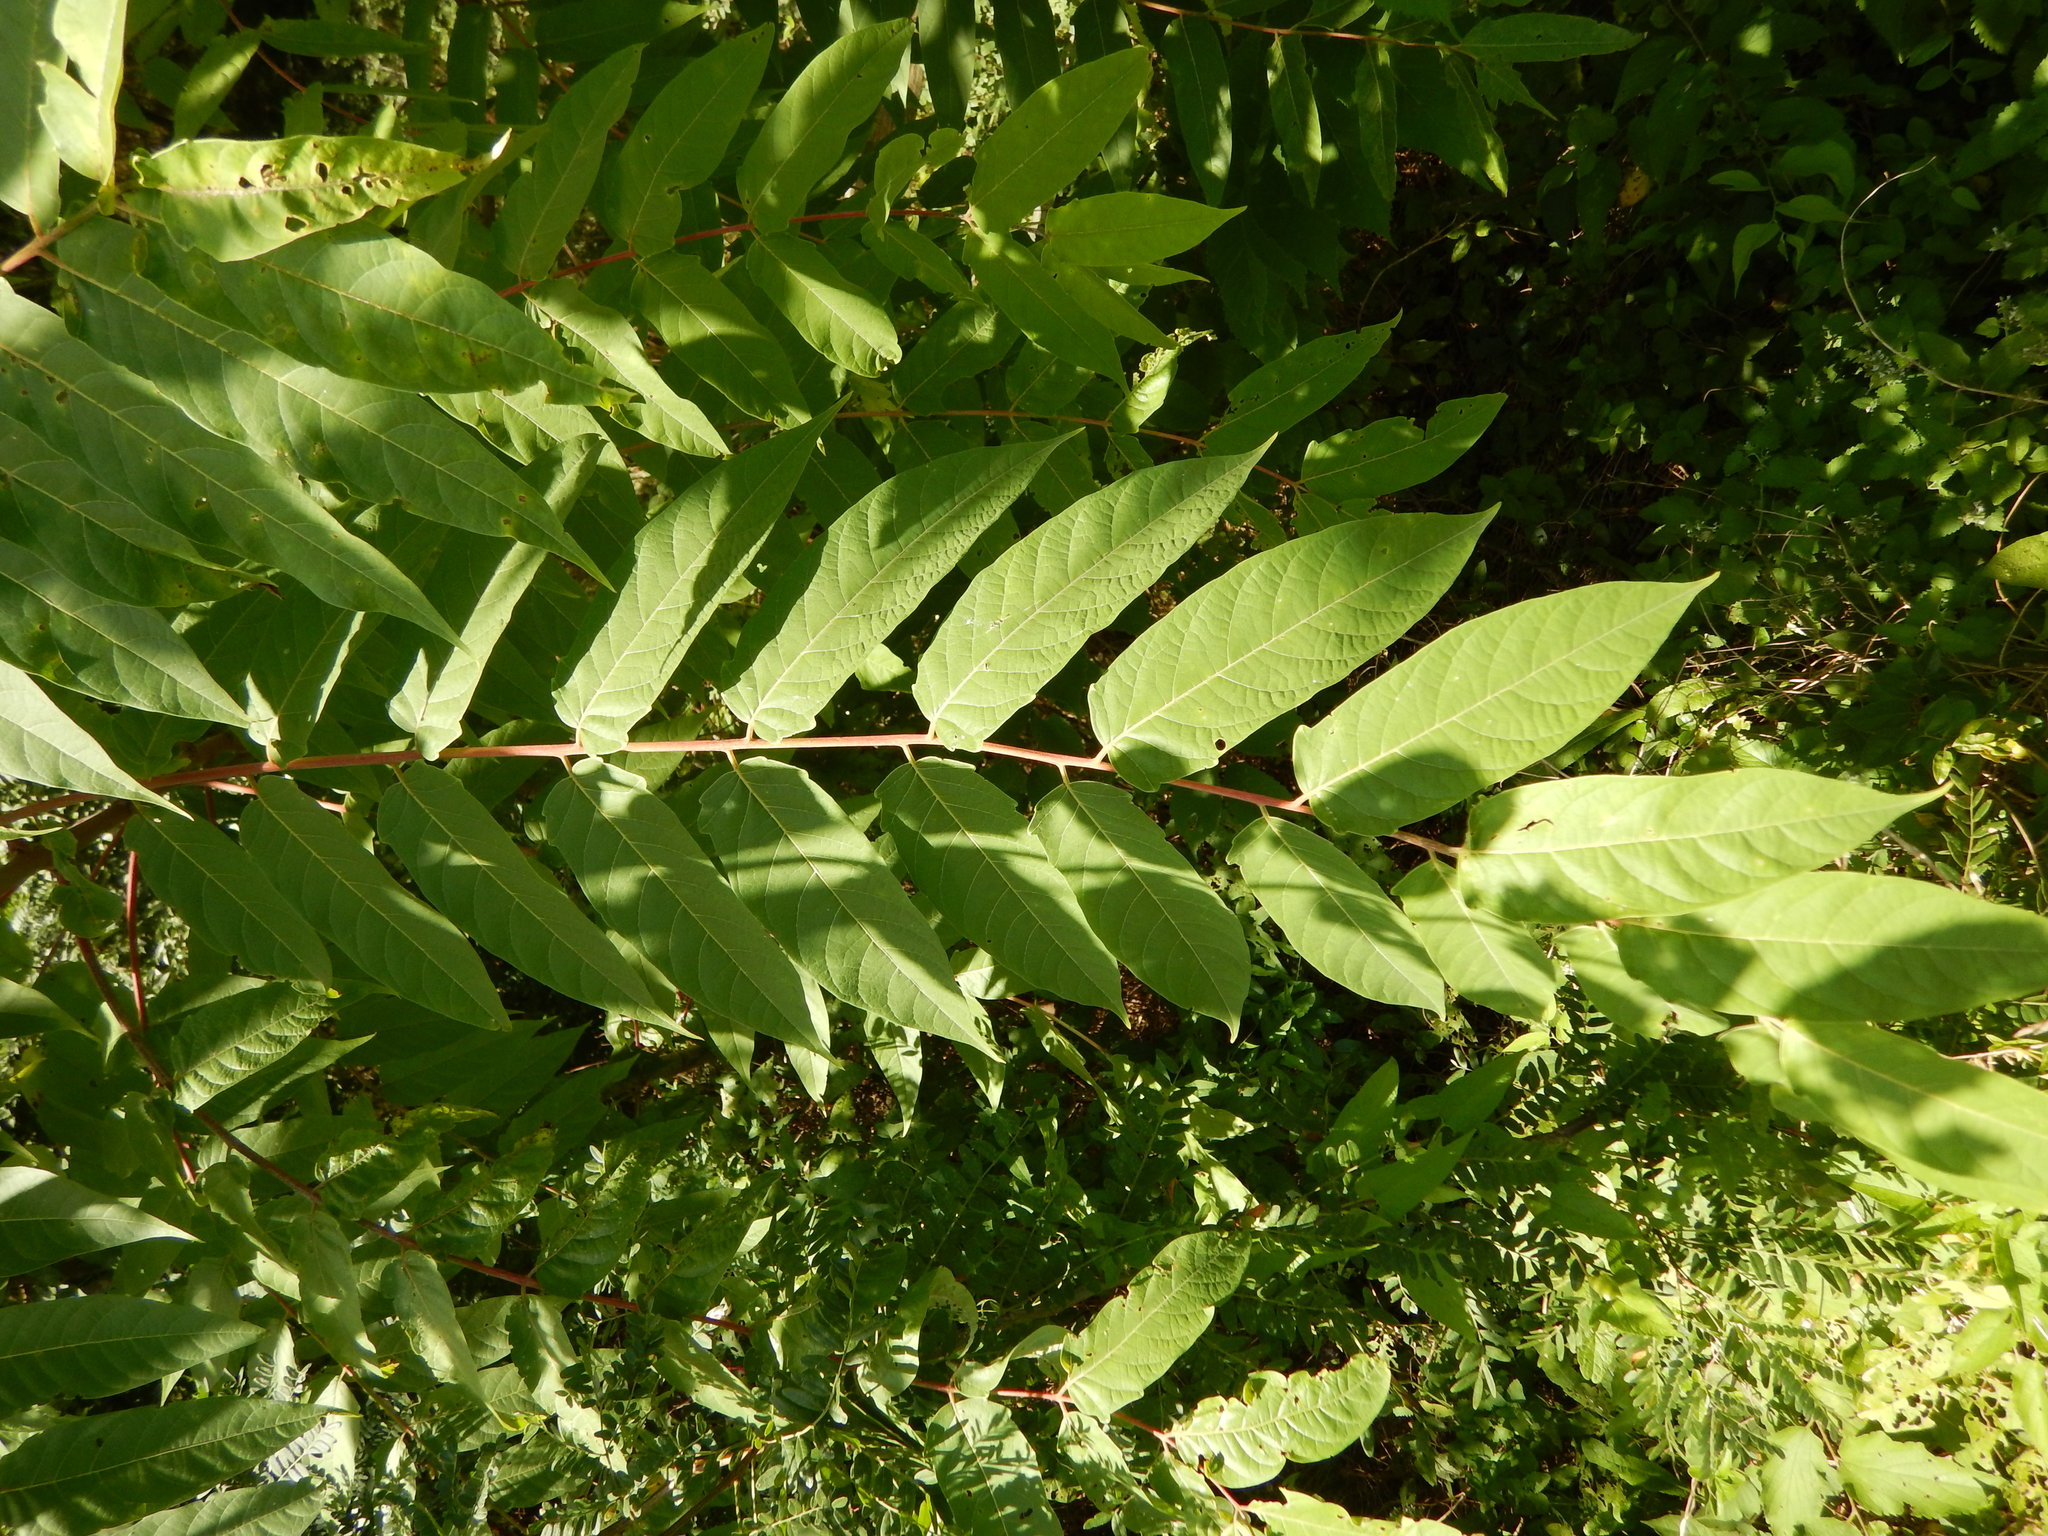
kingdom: Plantae
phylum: Tracheophyta
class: Magnoliopsida
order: Sapindales
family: Simaroubaceae
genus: Ailanthus
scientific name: Ailanthus altissima
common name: Tree-of-heaven
